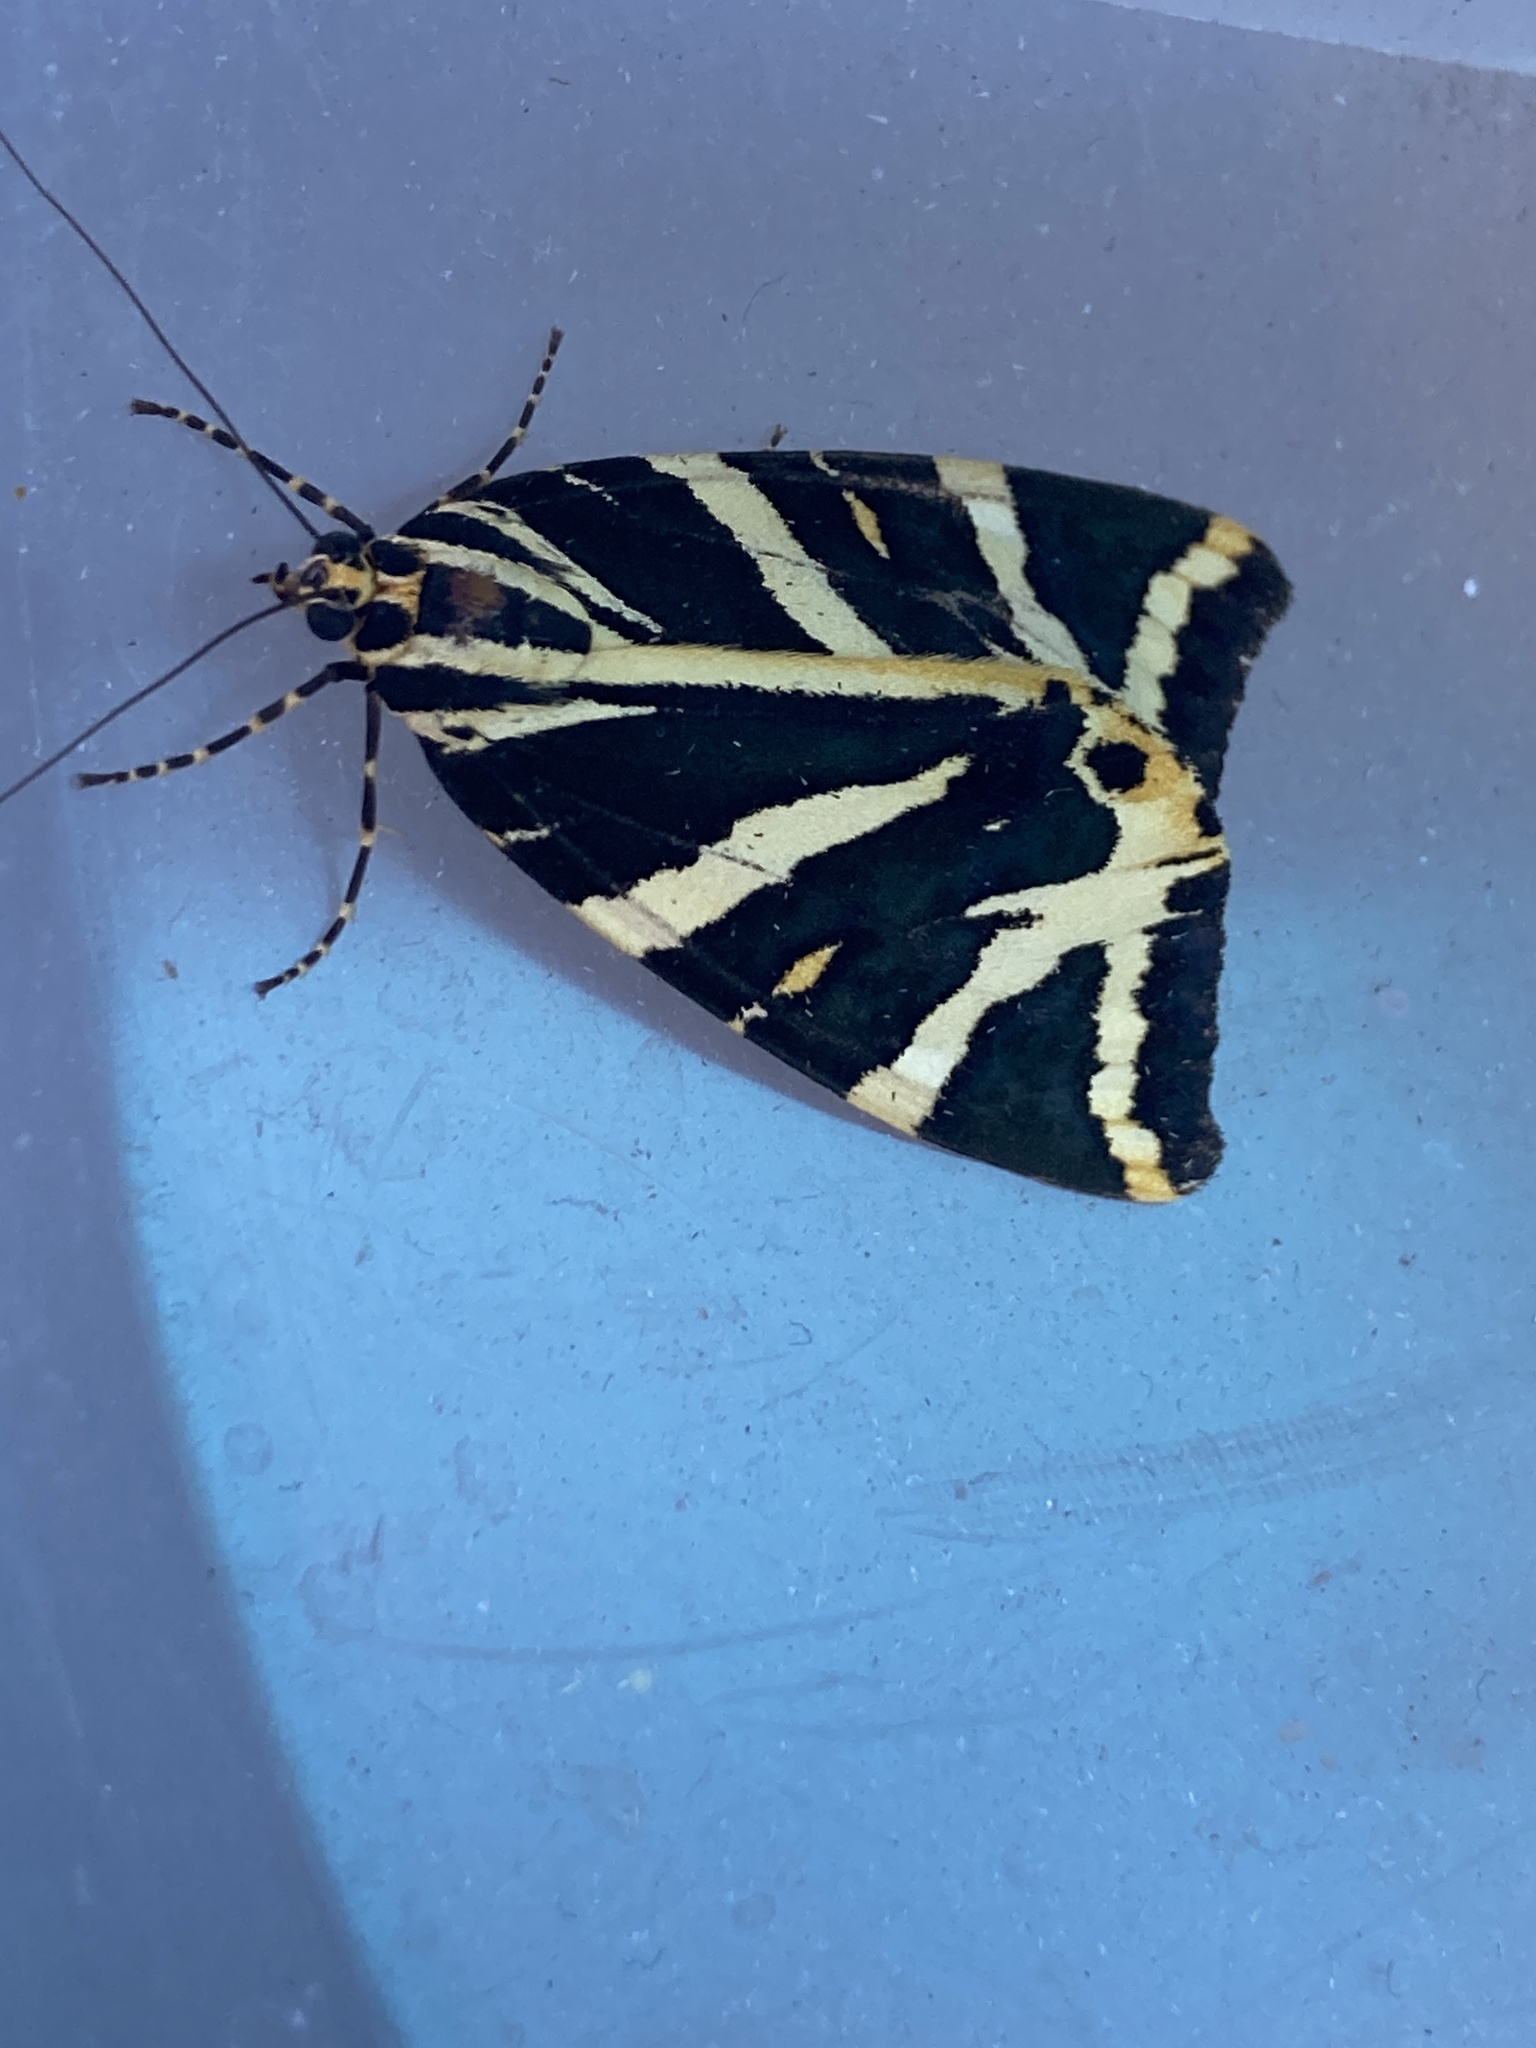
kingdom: Animalia
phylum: Arthropoda
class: Insecta
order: Lepidoptera
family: Erebidae
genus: Euplagia
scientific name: Euplagia quadripunctaria
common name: Jersey tiger
